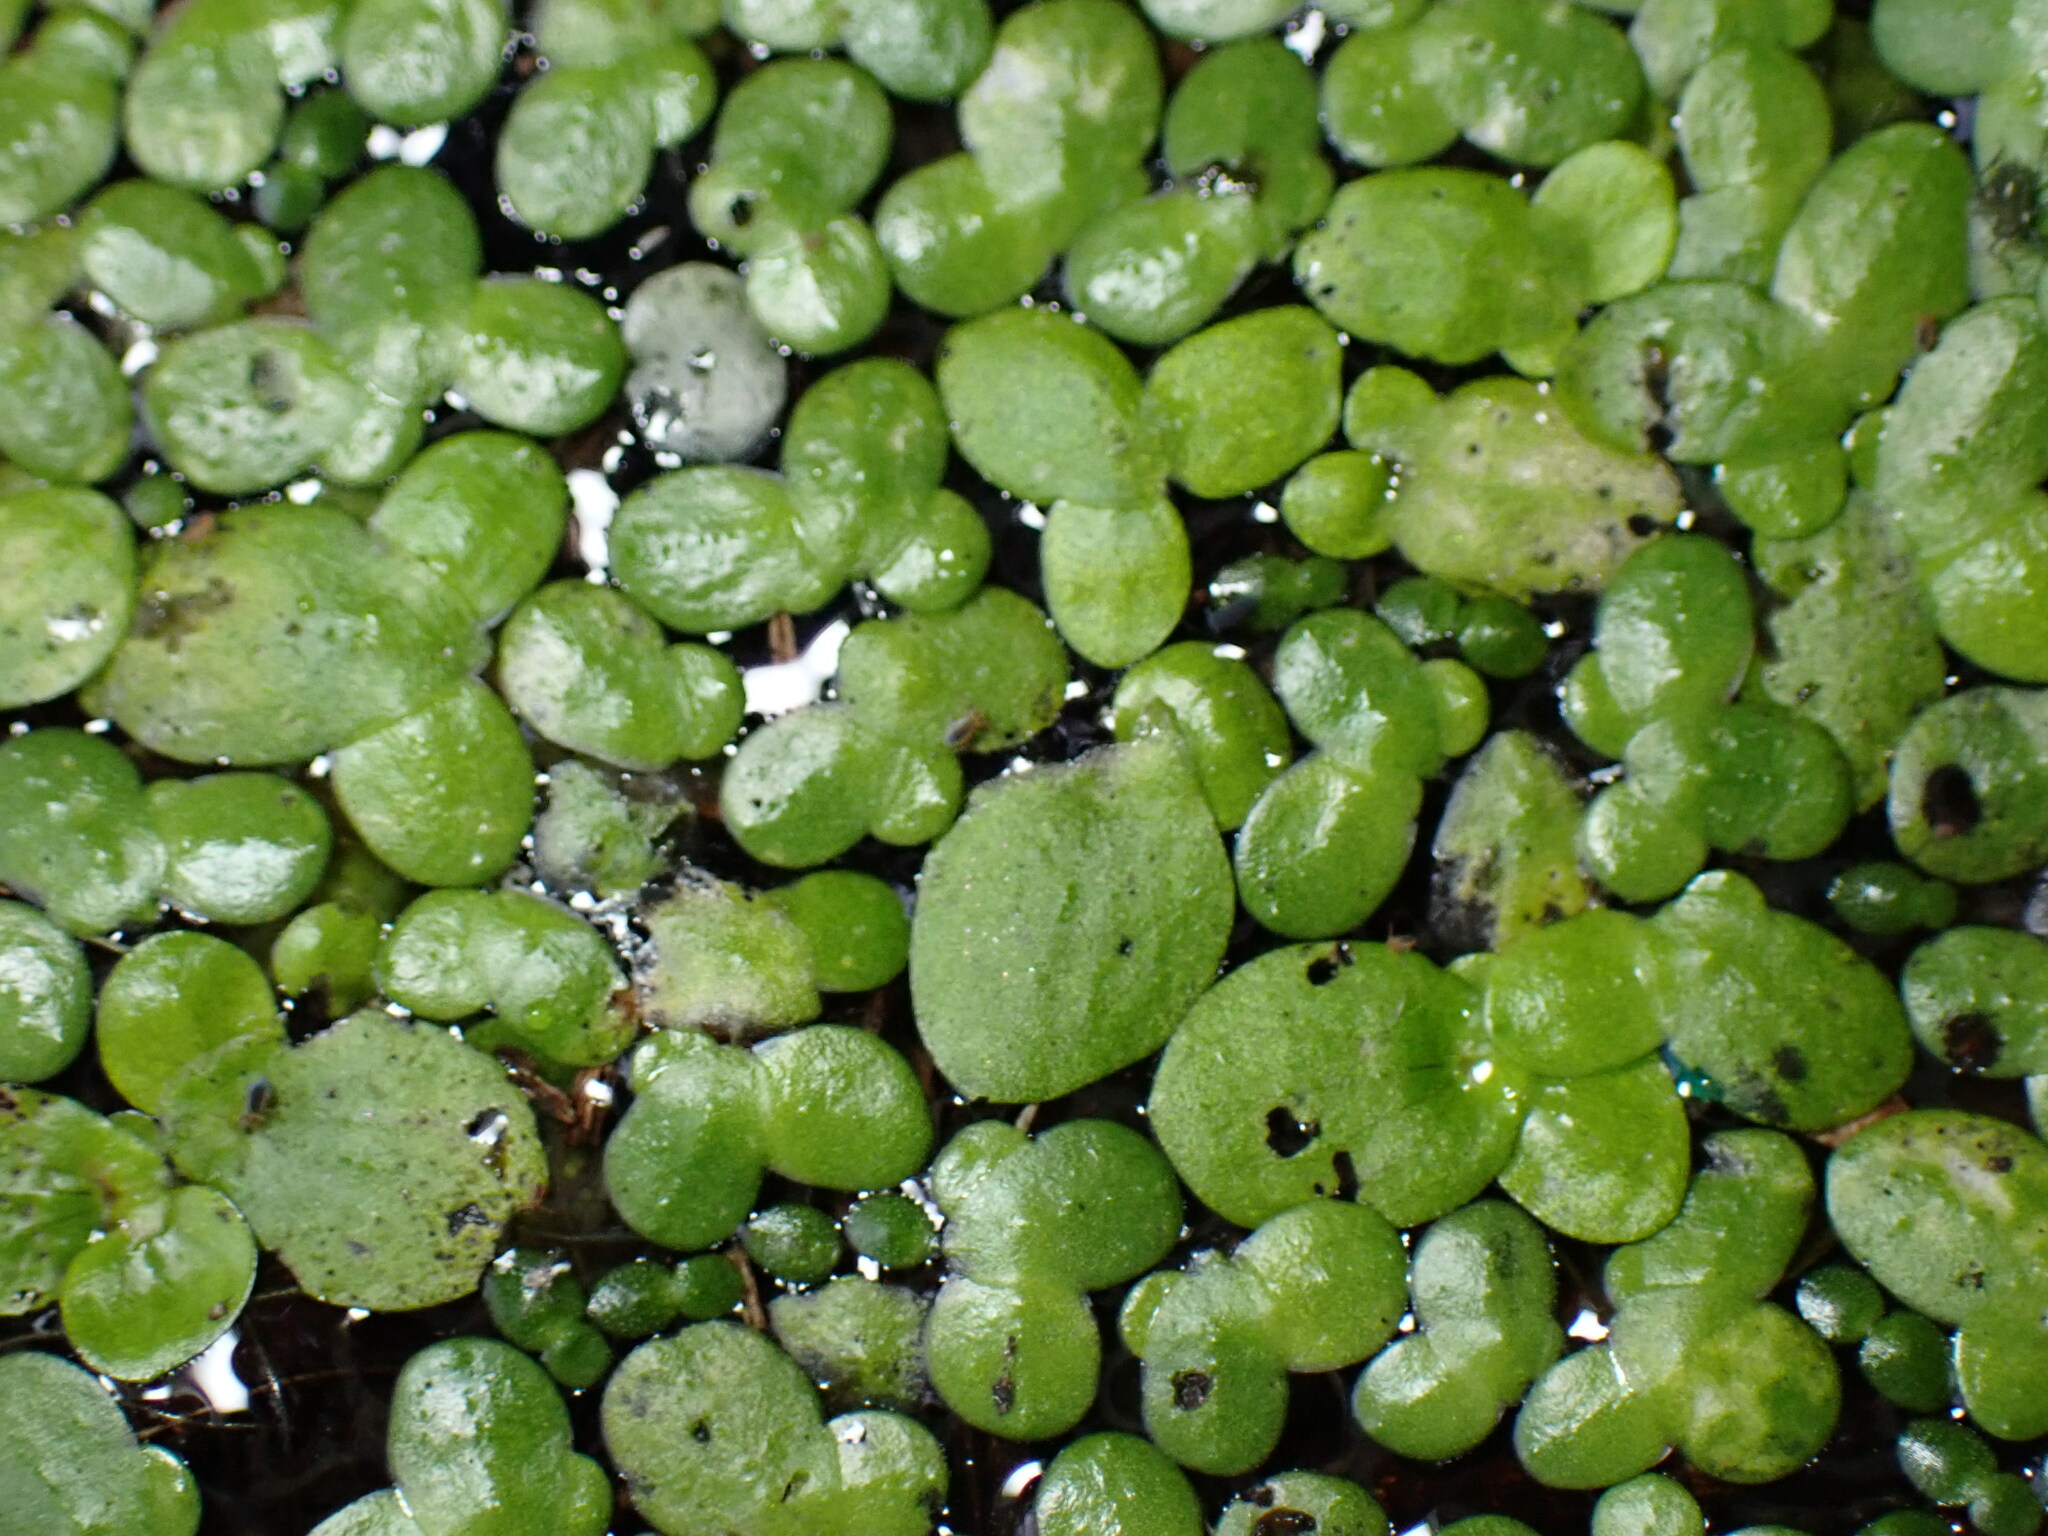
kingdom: Plantae
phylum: Tracheophyta
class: Liliopsida
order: Alismatales
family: Araceae
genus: Lemna
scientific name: Lemna minor
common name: Common duckweed
